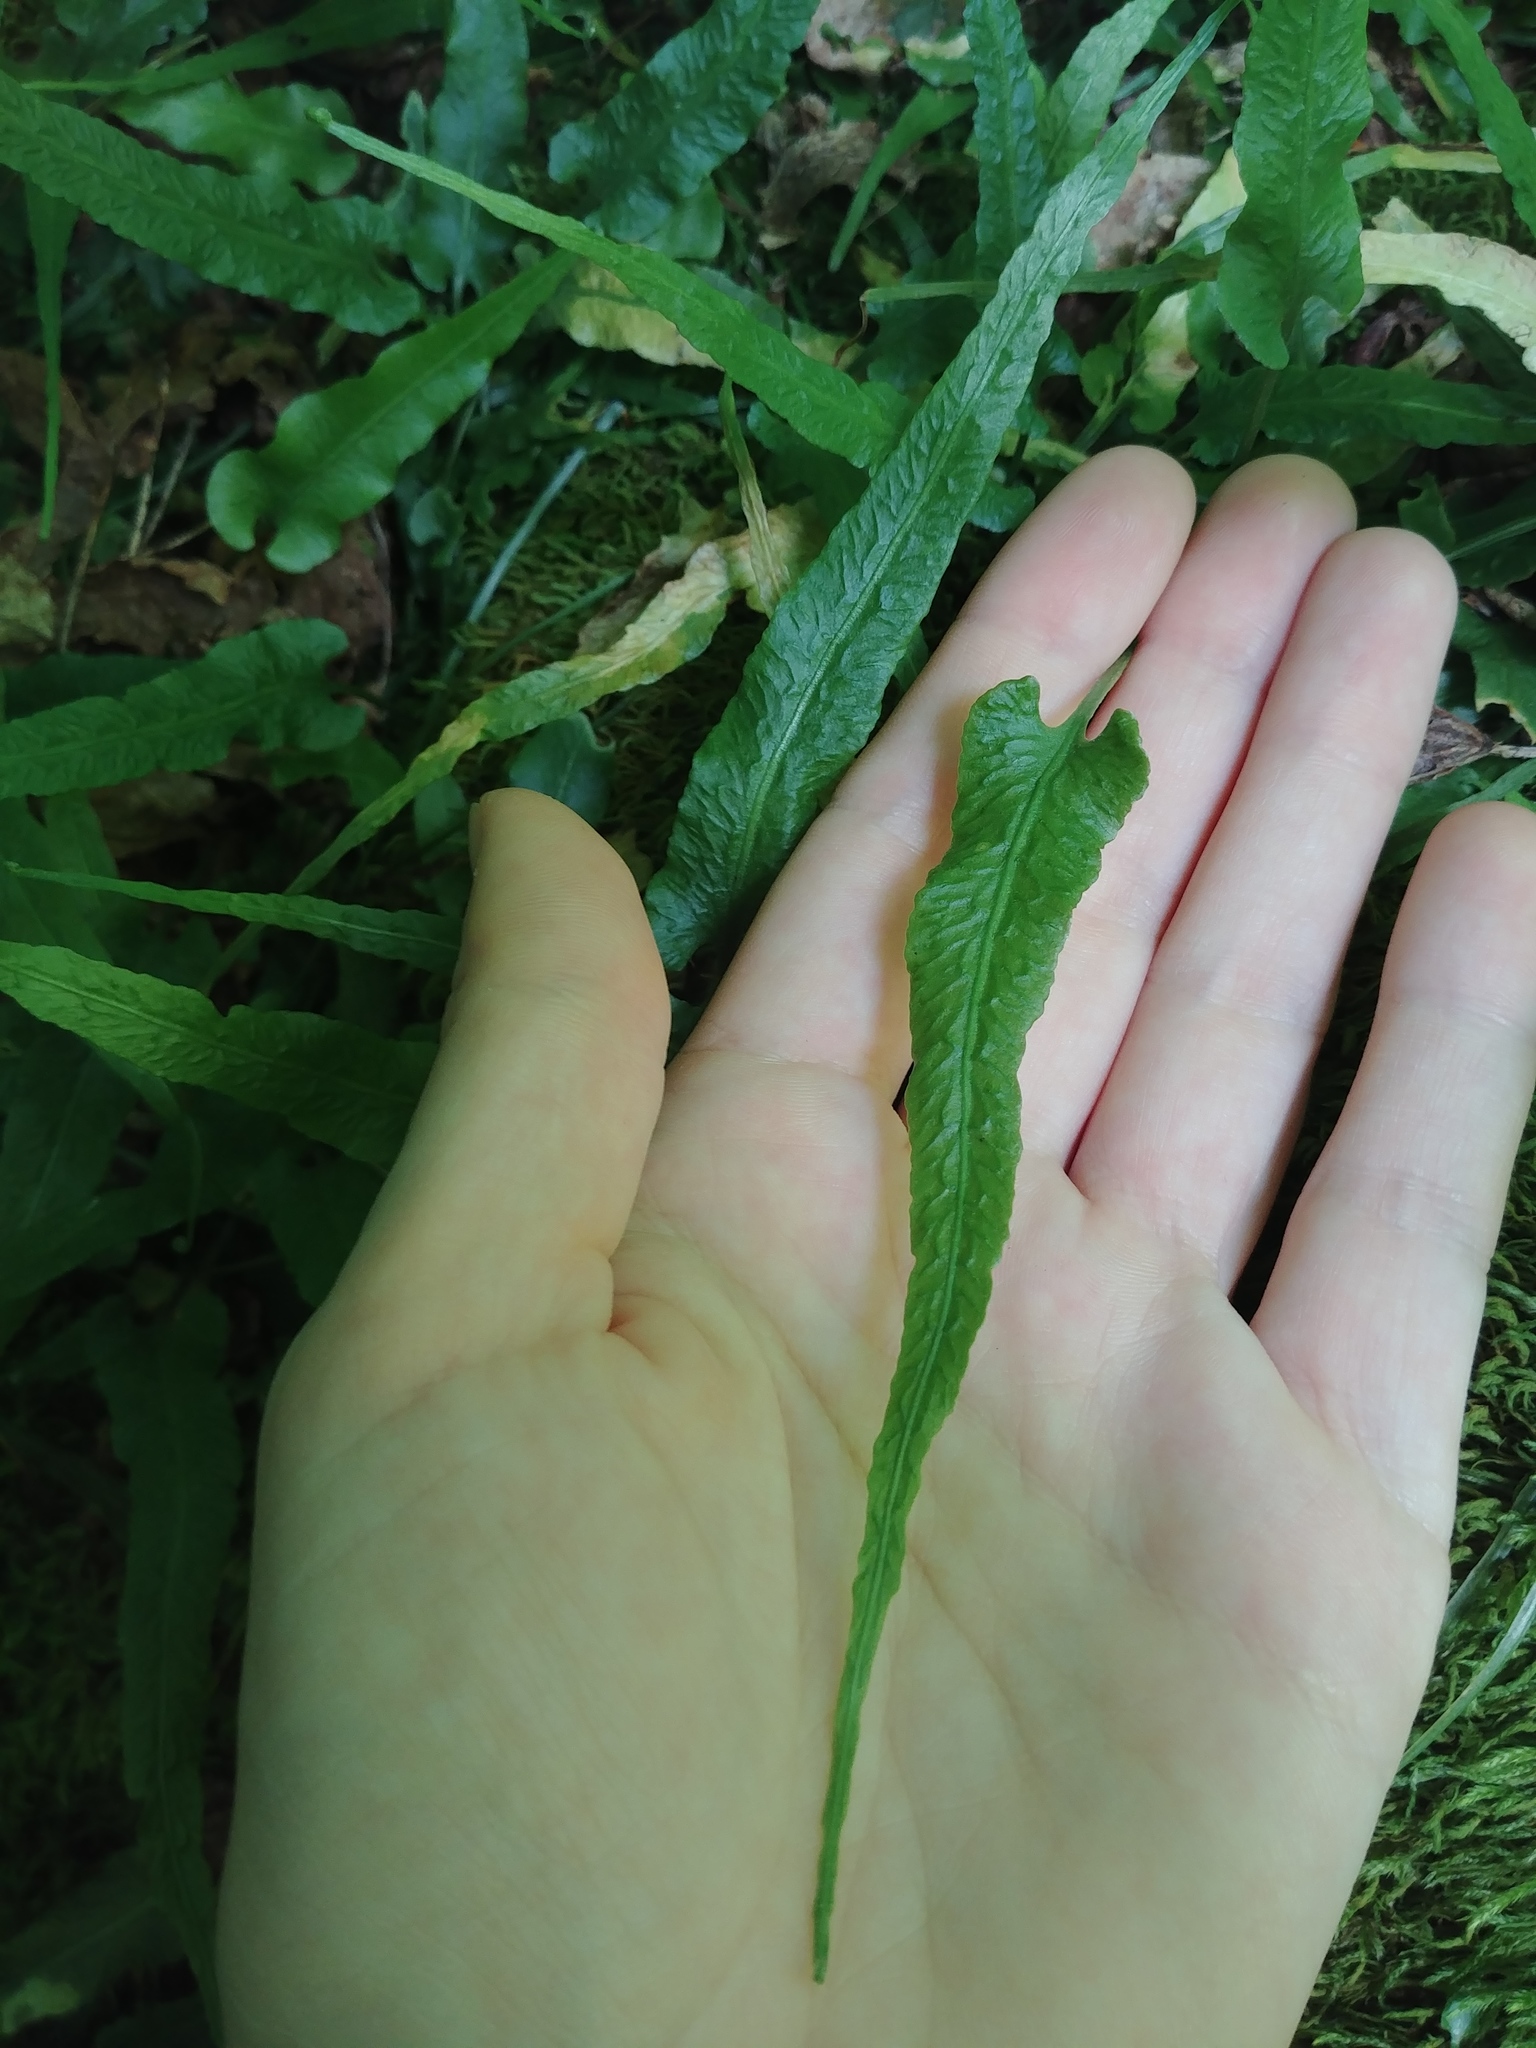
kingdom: Plantae
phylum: Tracheophyta
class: Polypodiopsida
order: Polypodiales
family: Aspleniaceae
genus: Asplenium
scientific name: Asplenium rhizophyllum
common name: Walking fern
